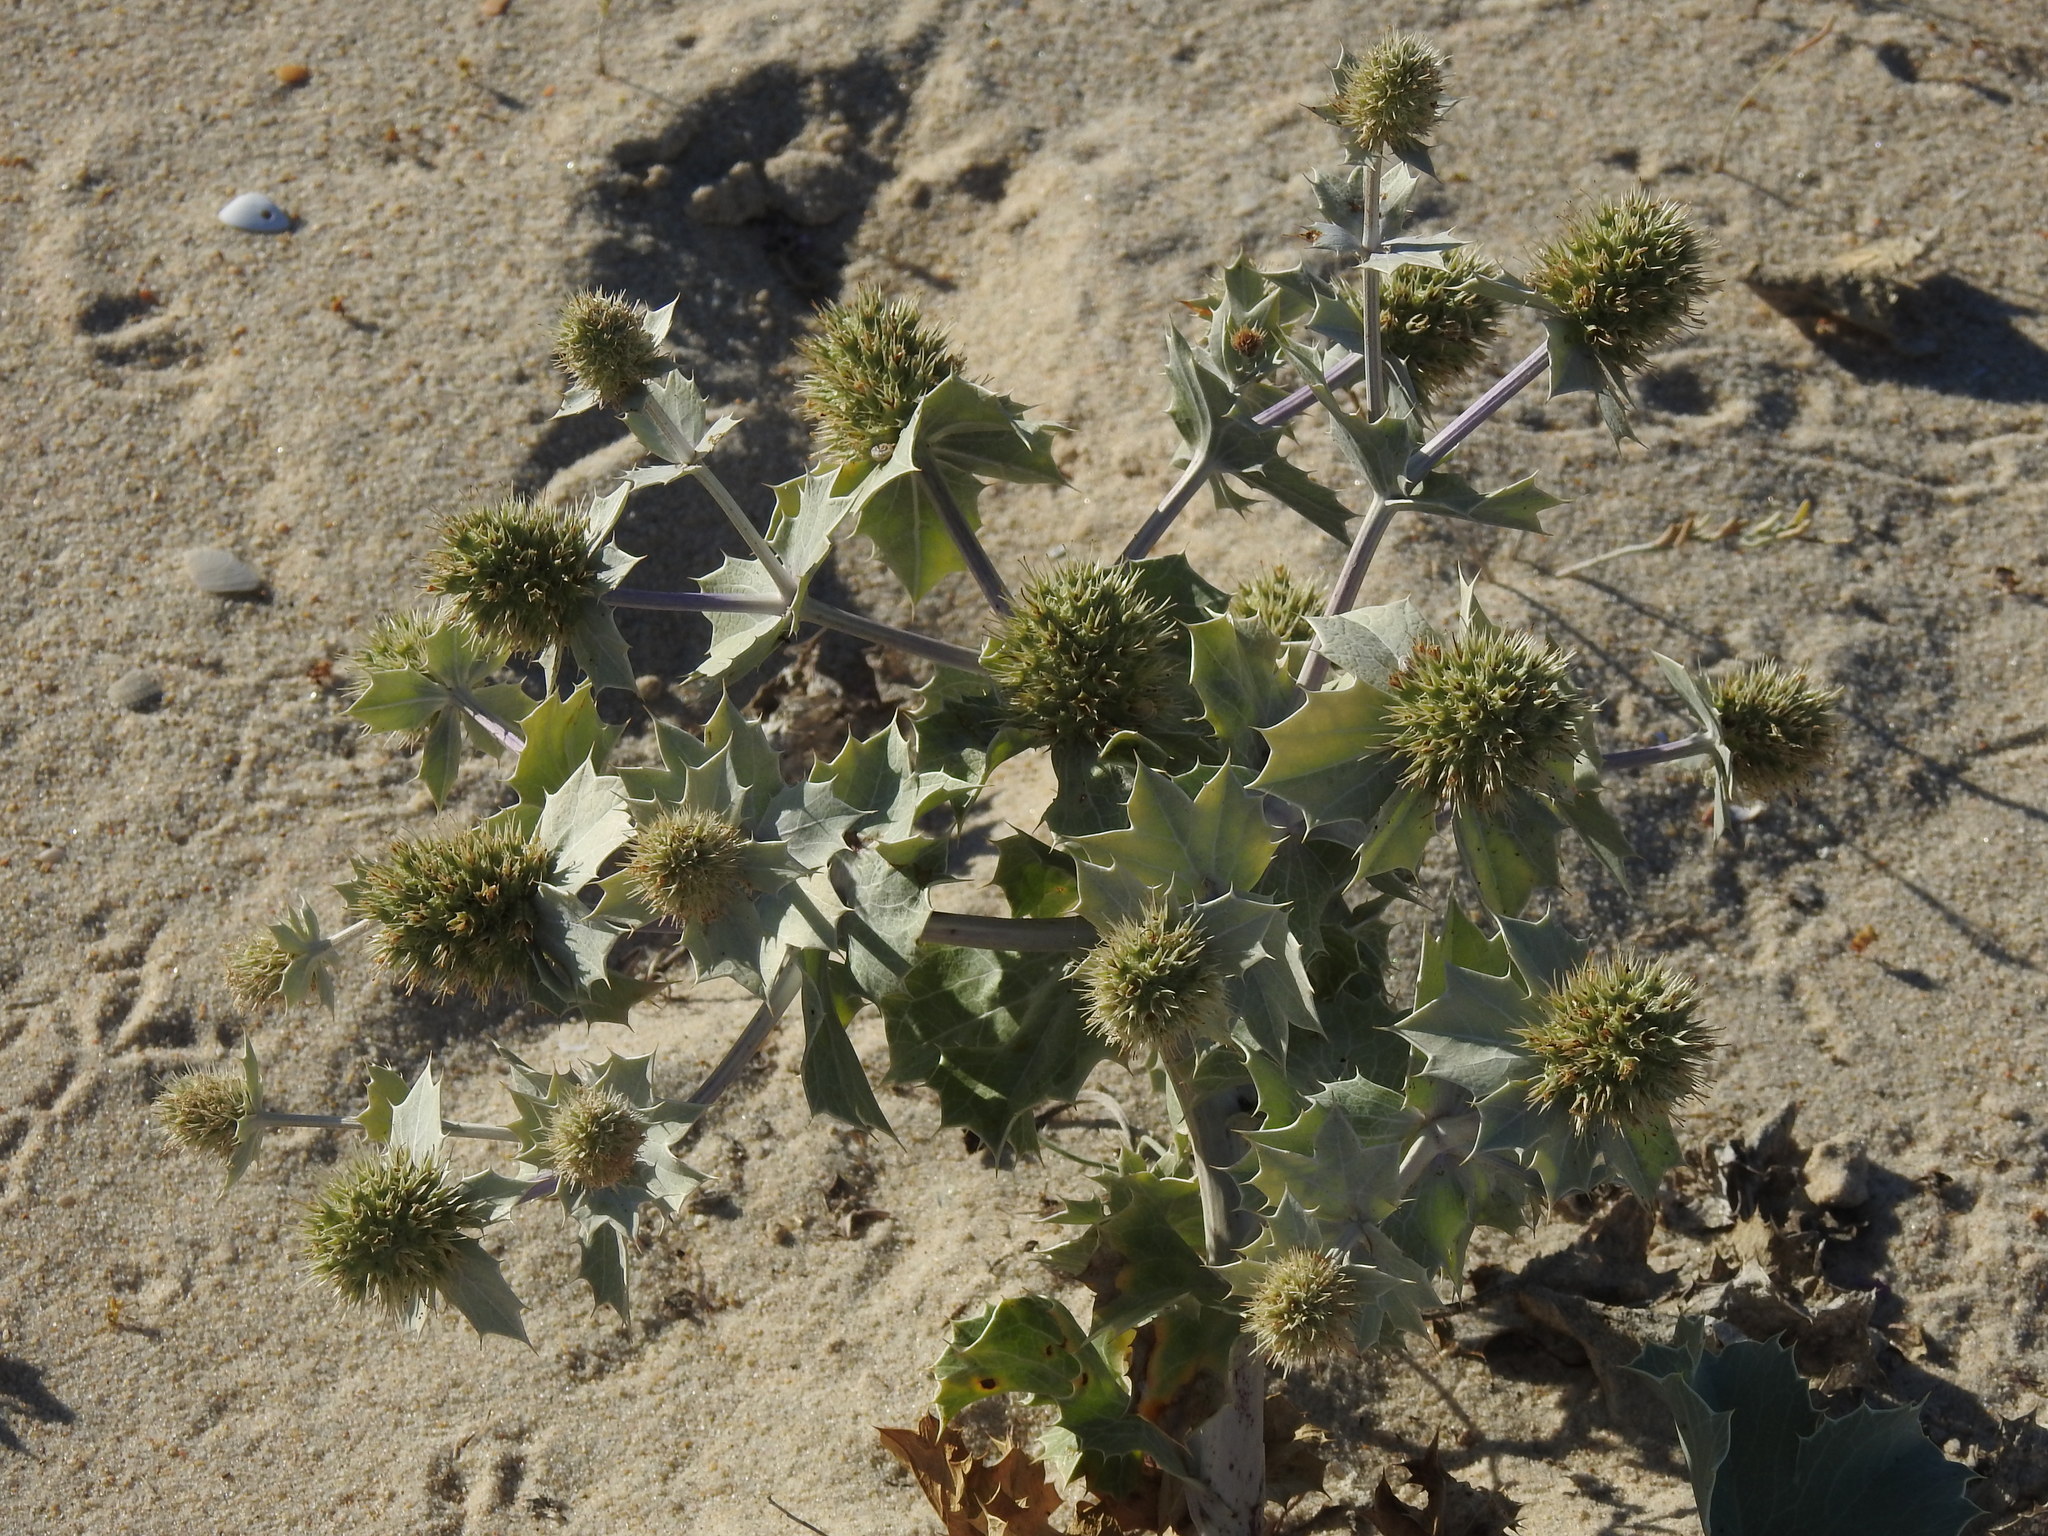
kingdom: Plantae
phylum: Tracheophyta
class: Magnoliopsida
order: Apiales
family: Apiaceae
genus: Eryngium
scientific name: Eryngium maritimum
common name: Sea-holly
